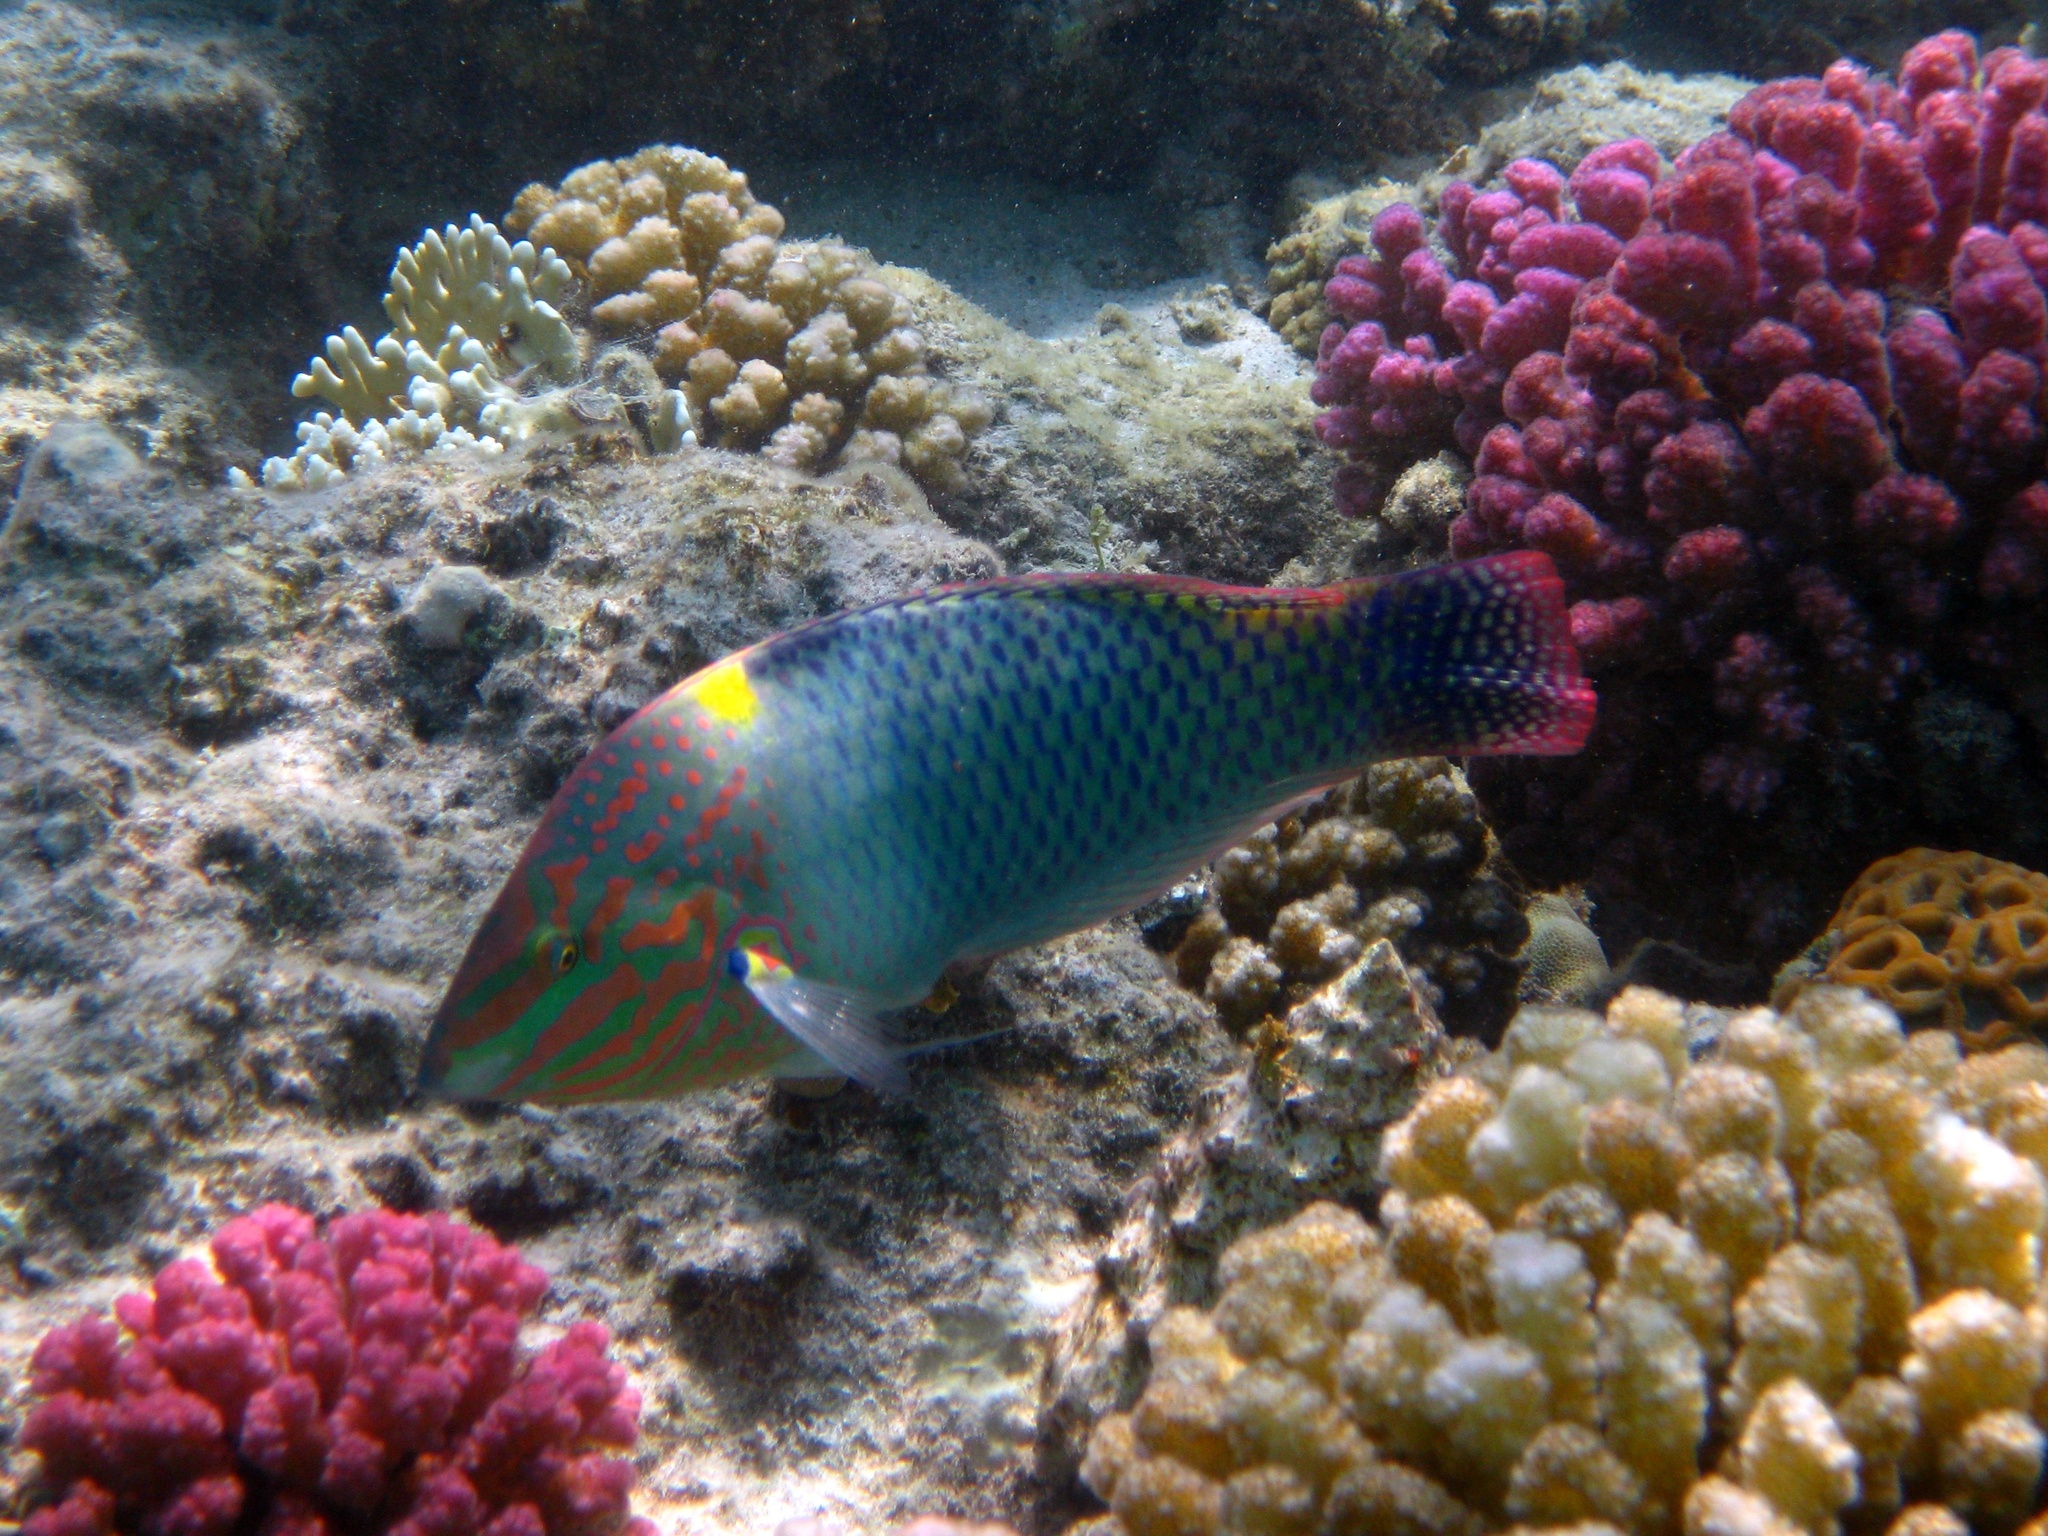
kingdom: Animalia
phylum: Chordata
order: Perciformes
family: Labridae
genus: Halichoeres
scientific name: Halichoeres hortulanus
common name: Checkerboard wrasse
